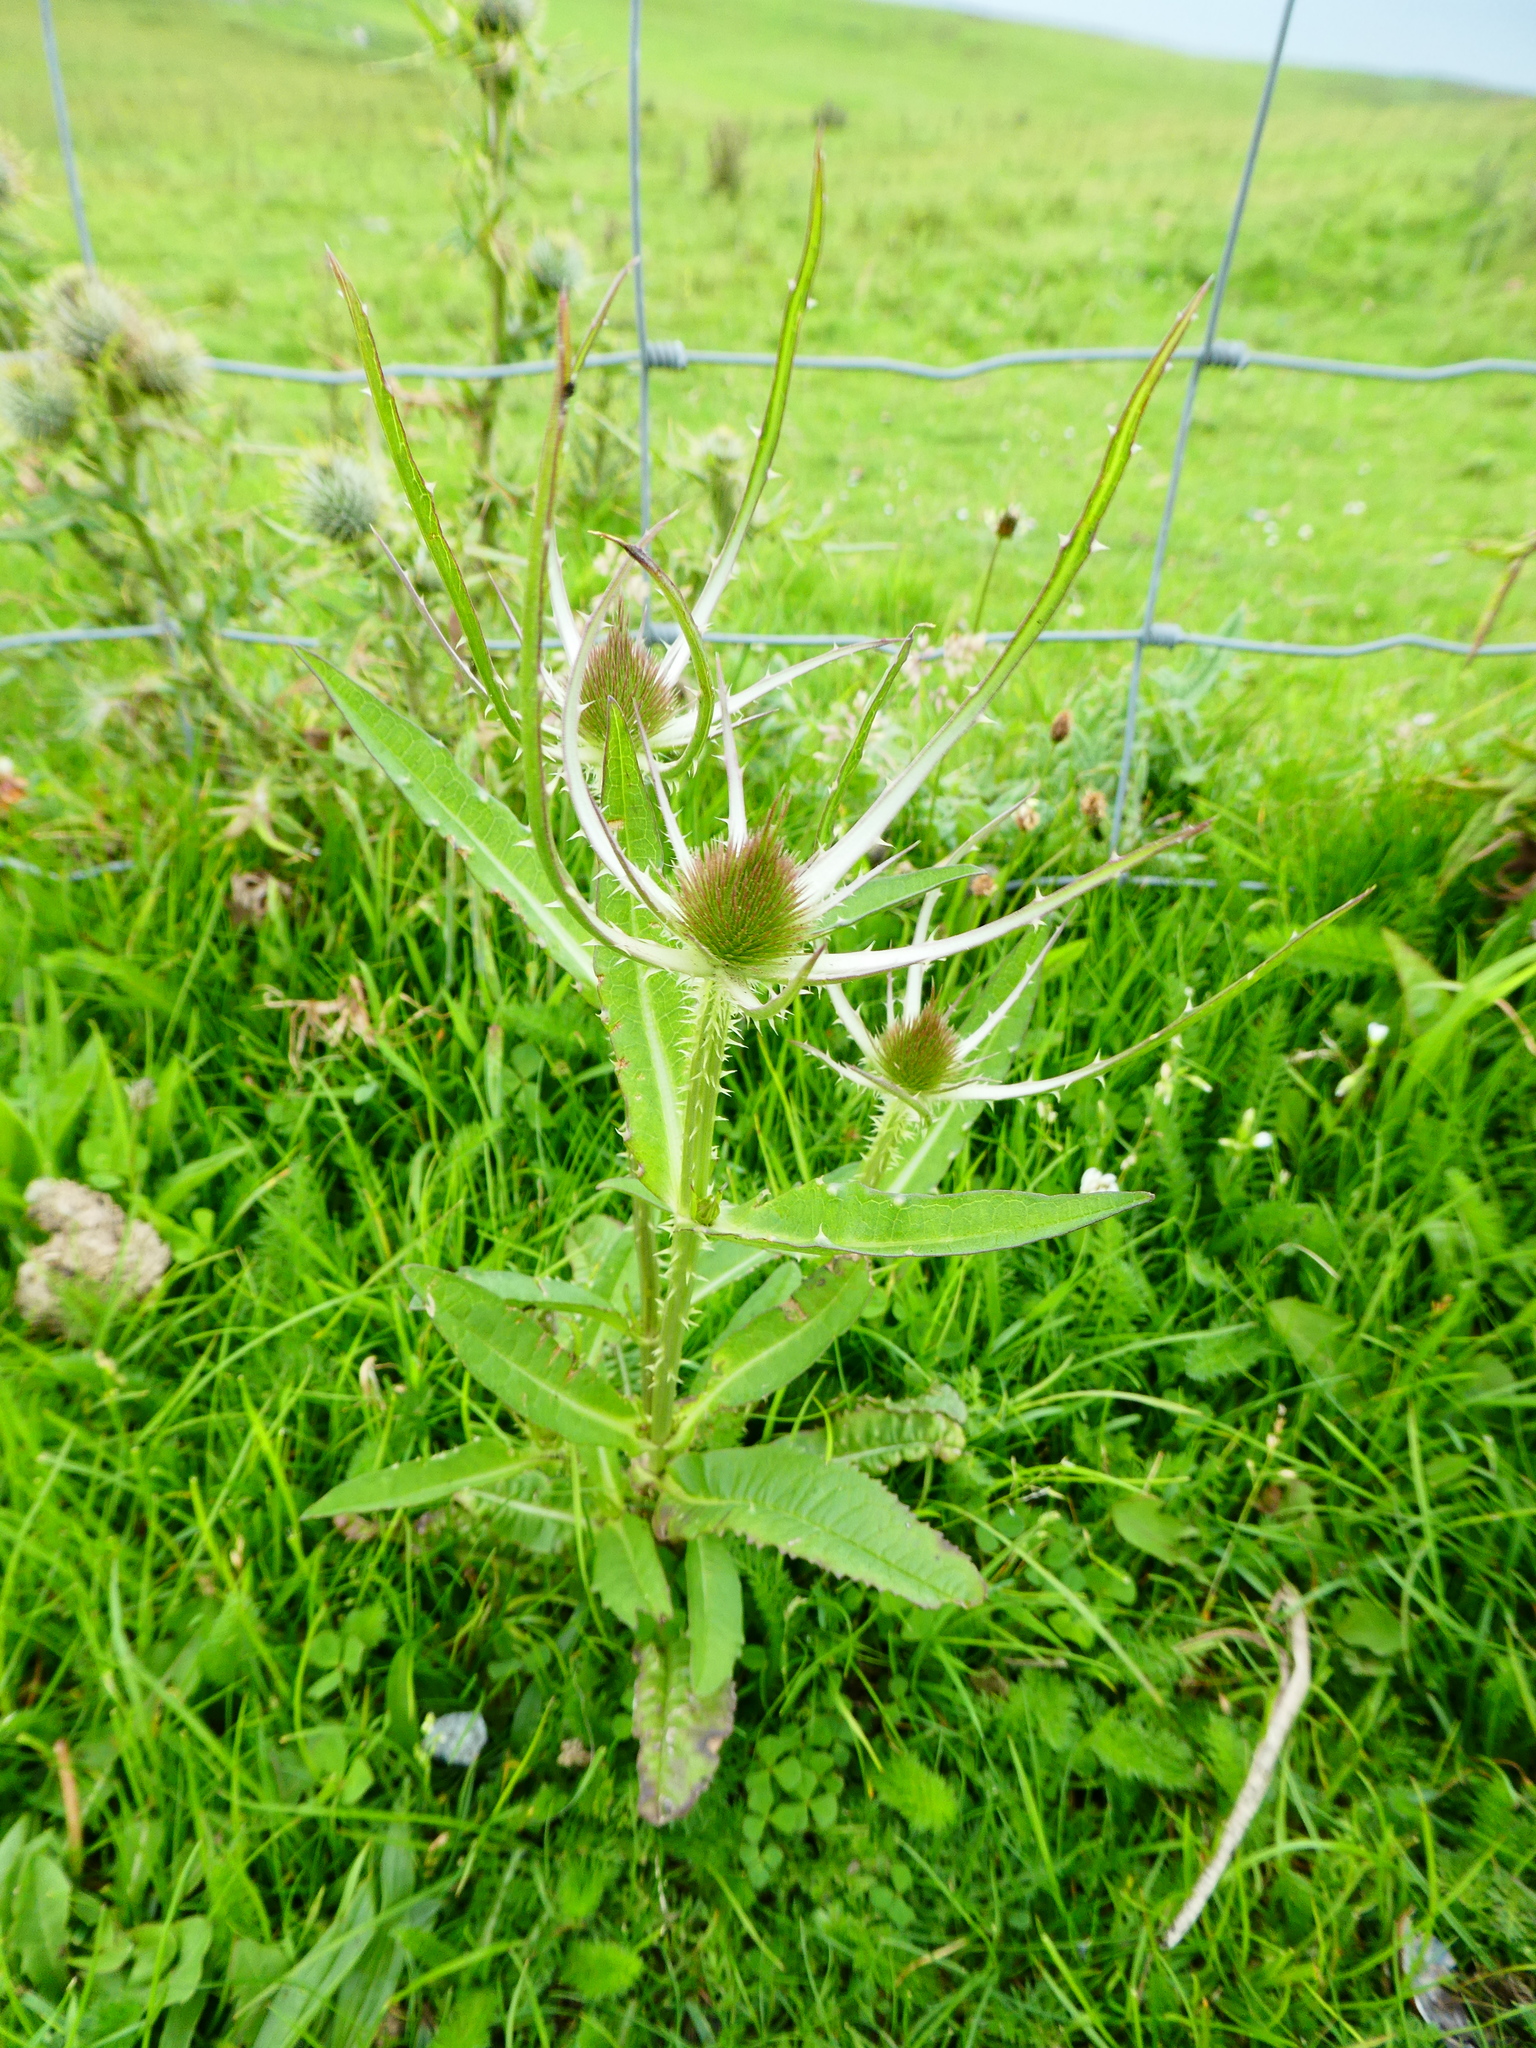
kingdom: Plantae
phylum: Tracheophyta
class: Magnoliopsida
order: Dipsacales
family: Caprifoliaceae
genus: Dipsacus
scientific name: Dipsacus fullonum
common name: Teasel
